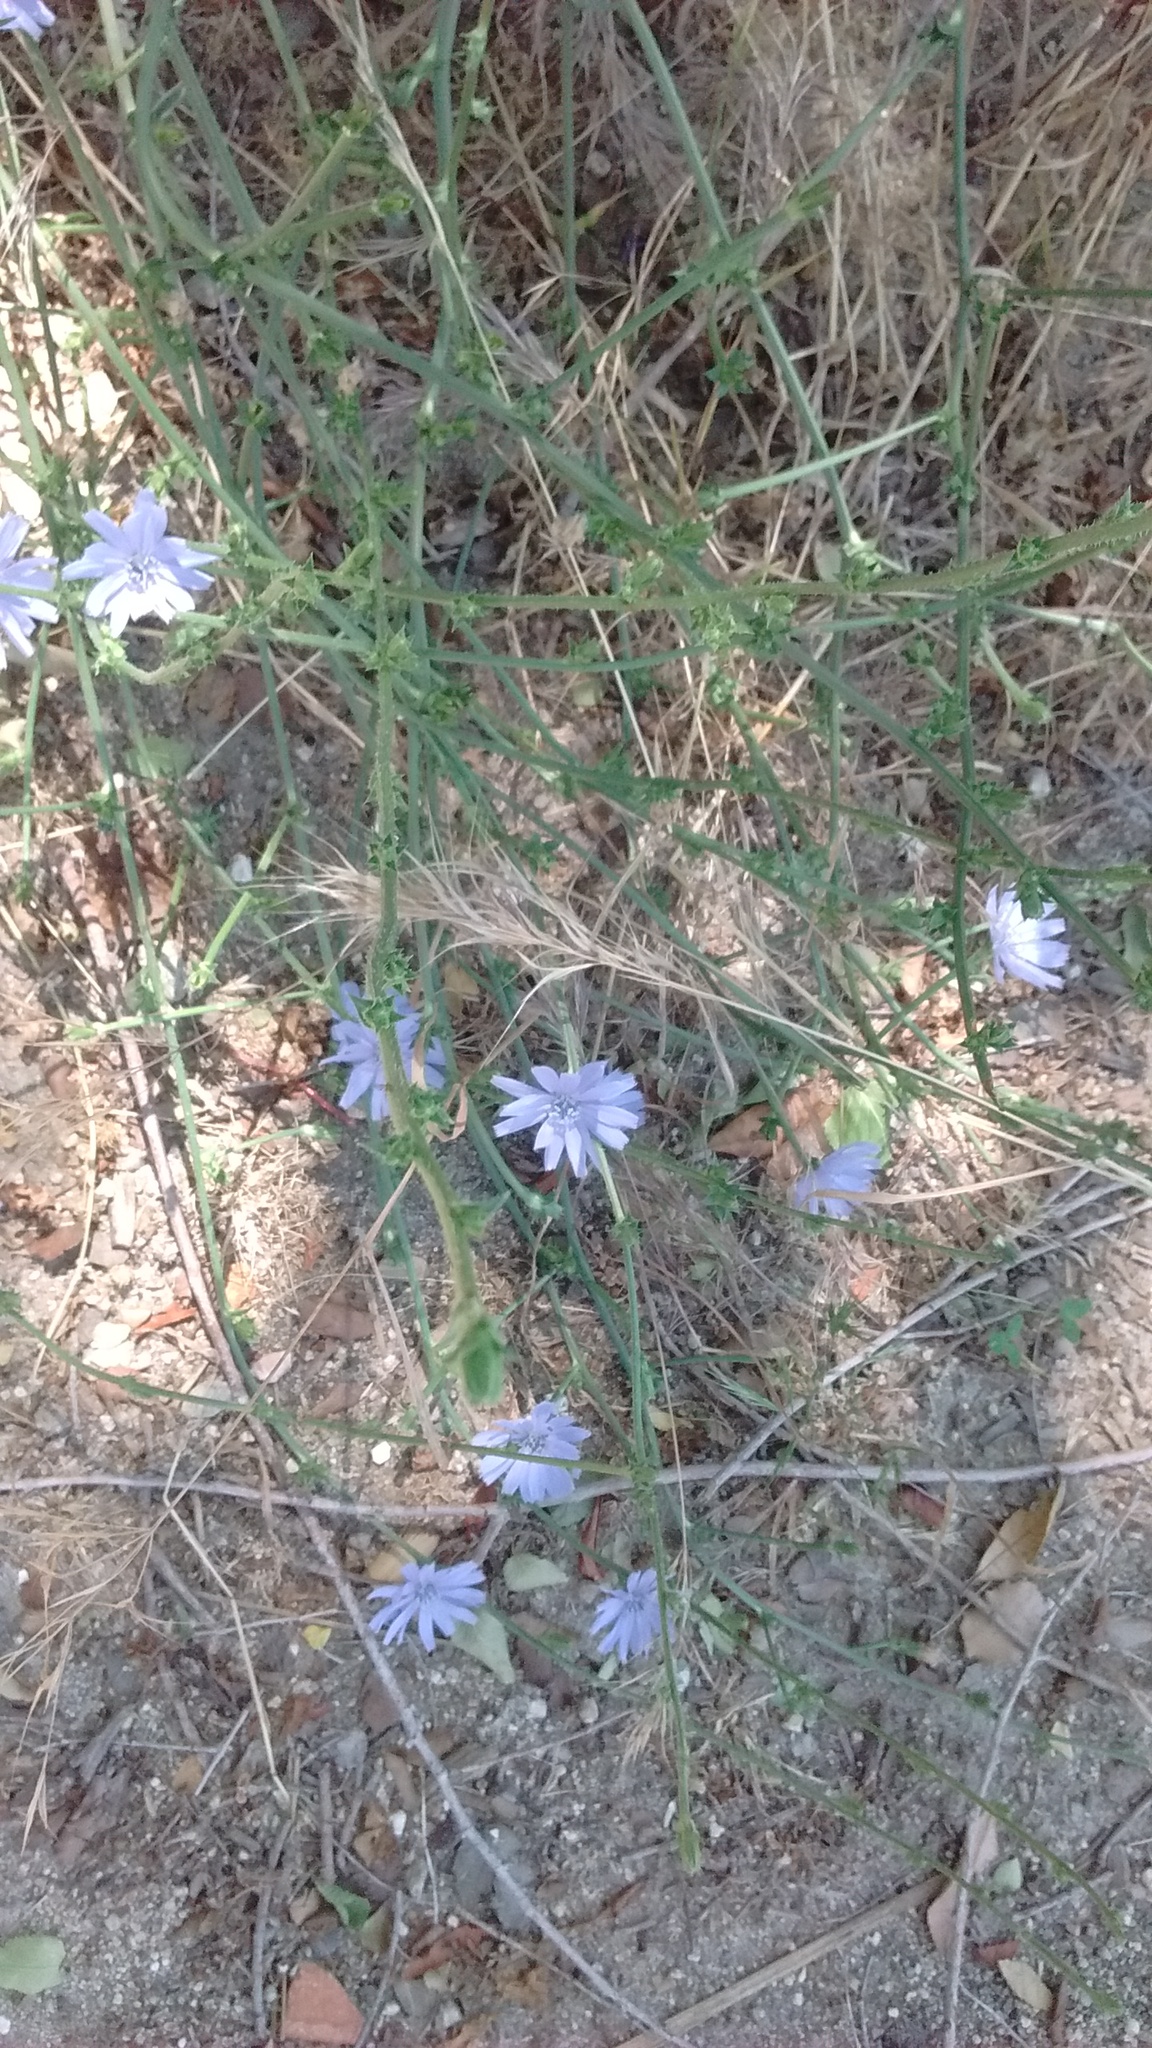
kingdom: Plantae
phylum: Tracheophyta
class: Magnoliopsida
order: Asterales
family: Asteraceae
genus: Cichorium
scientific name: Cichorium intybus
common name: Chicory
